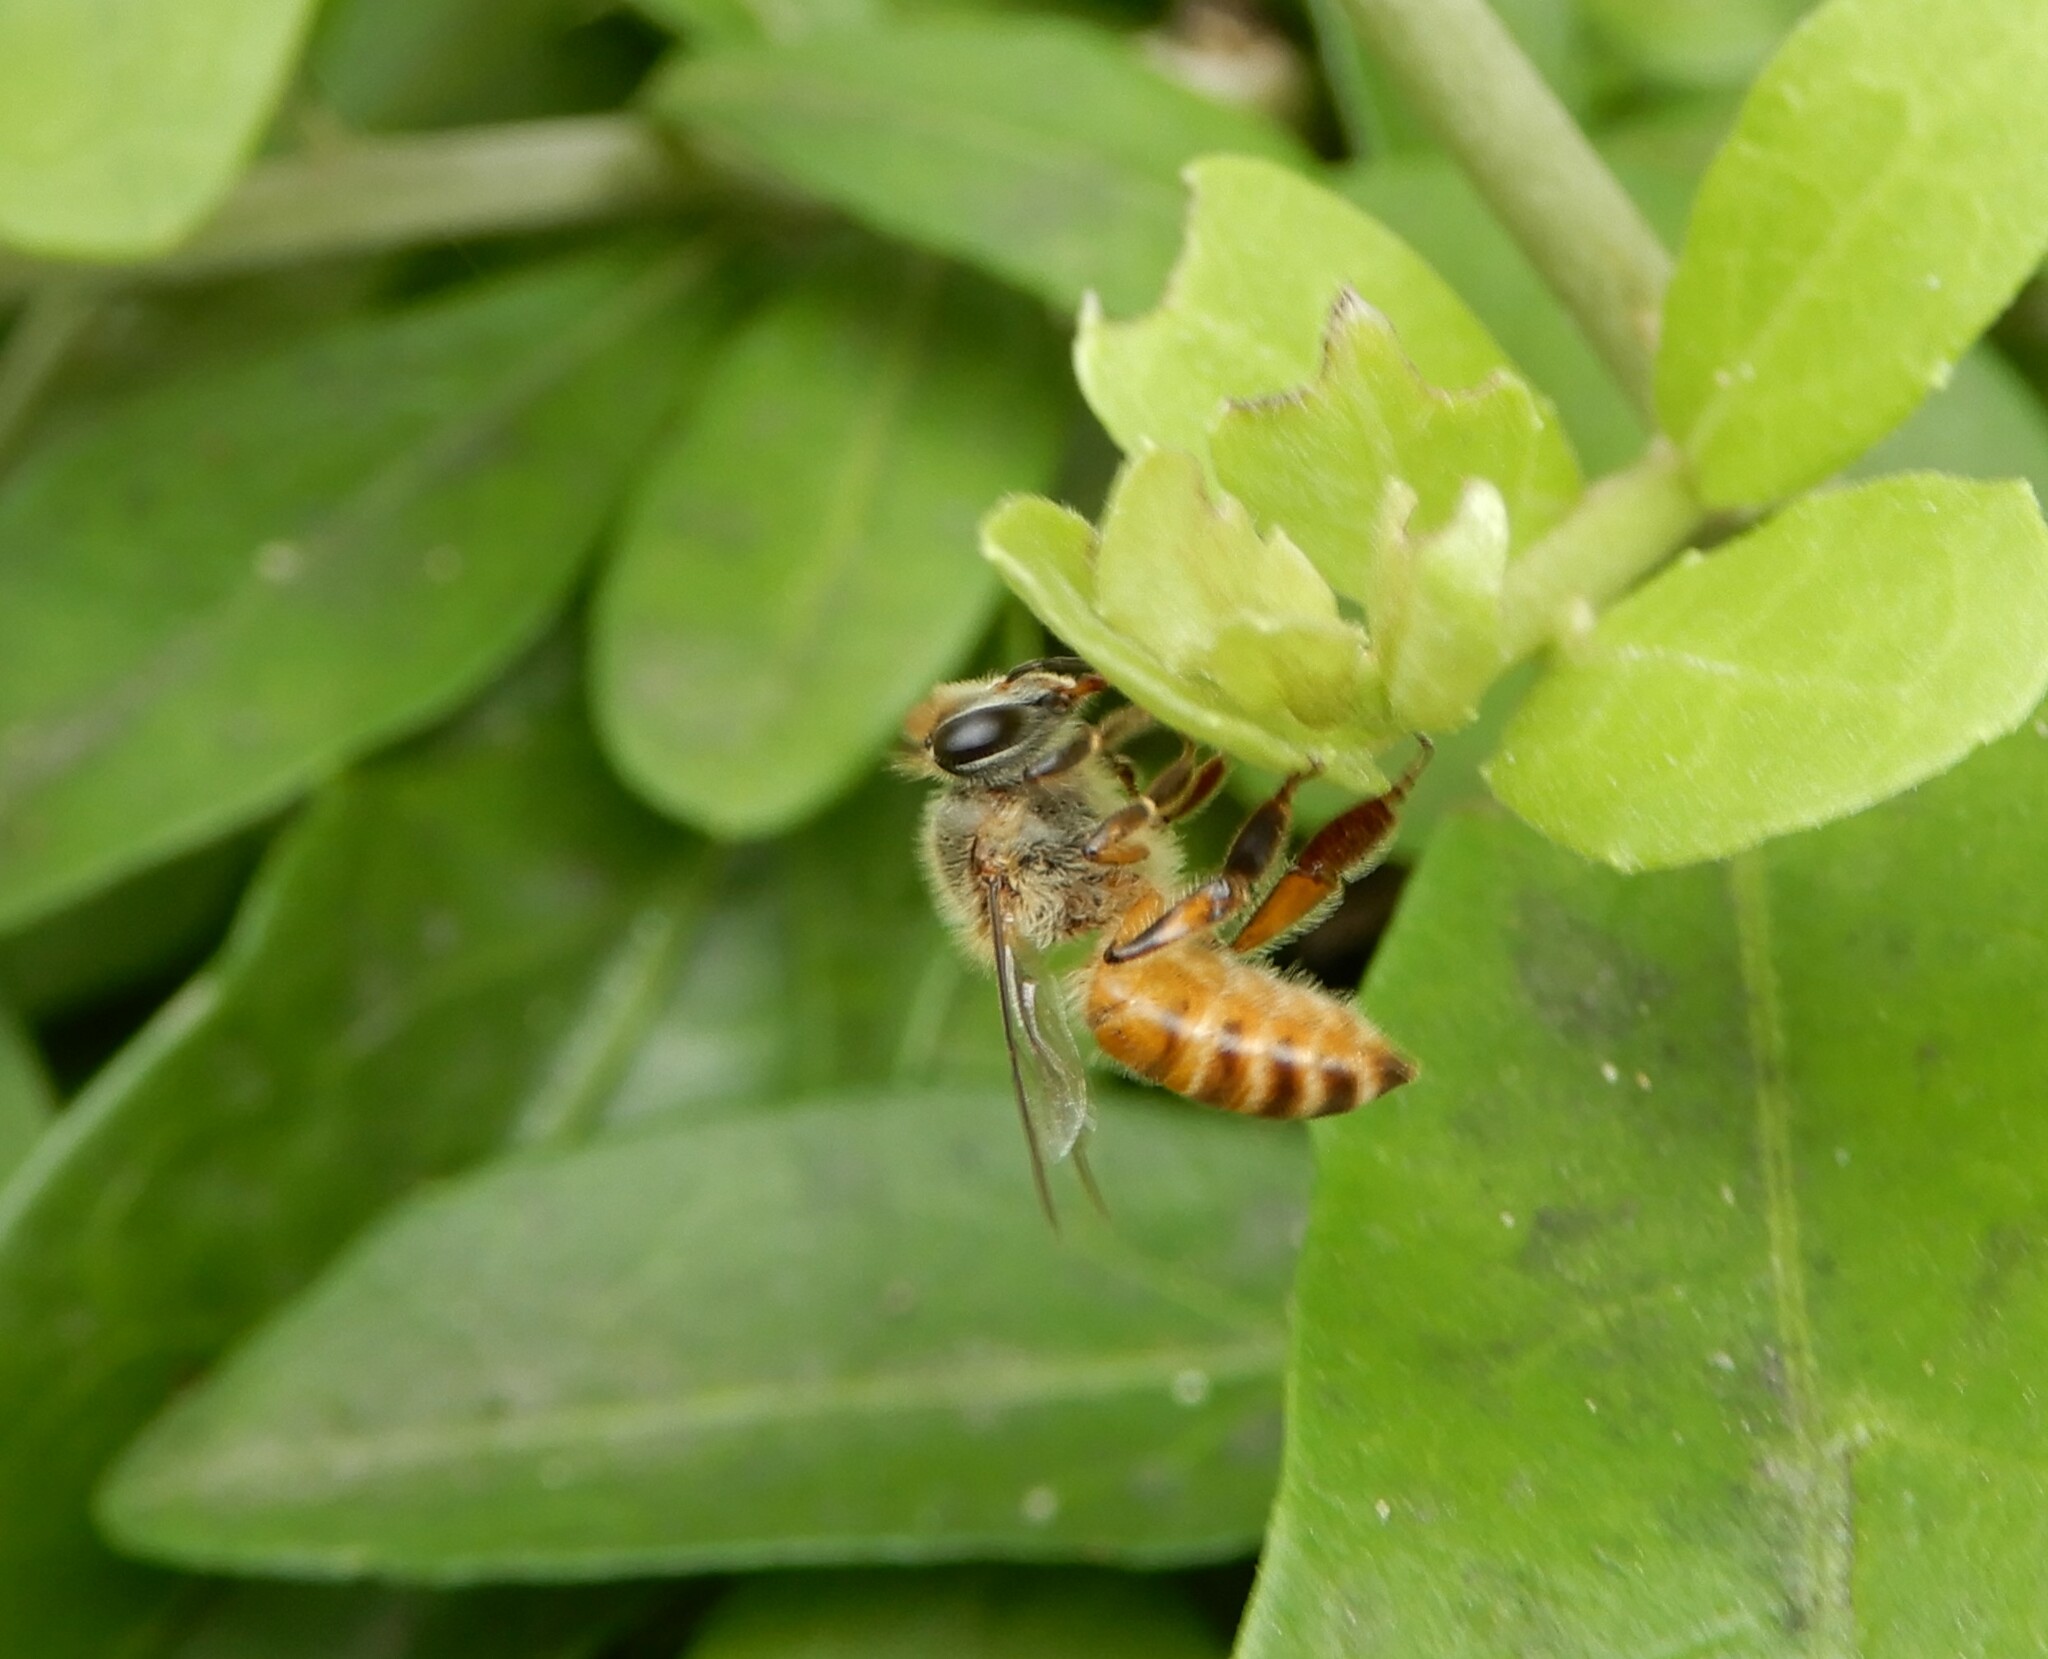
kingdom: Animalia
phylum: Arthropoda
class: Insecta
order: Hymenoptera
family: Apidae
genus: Apis
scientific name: Apis cerana
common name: Honey bee
